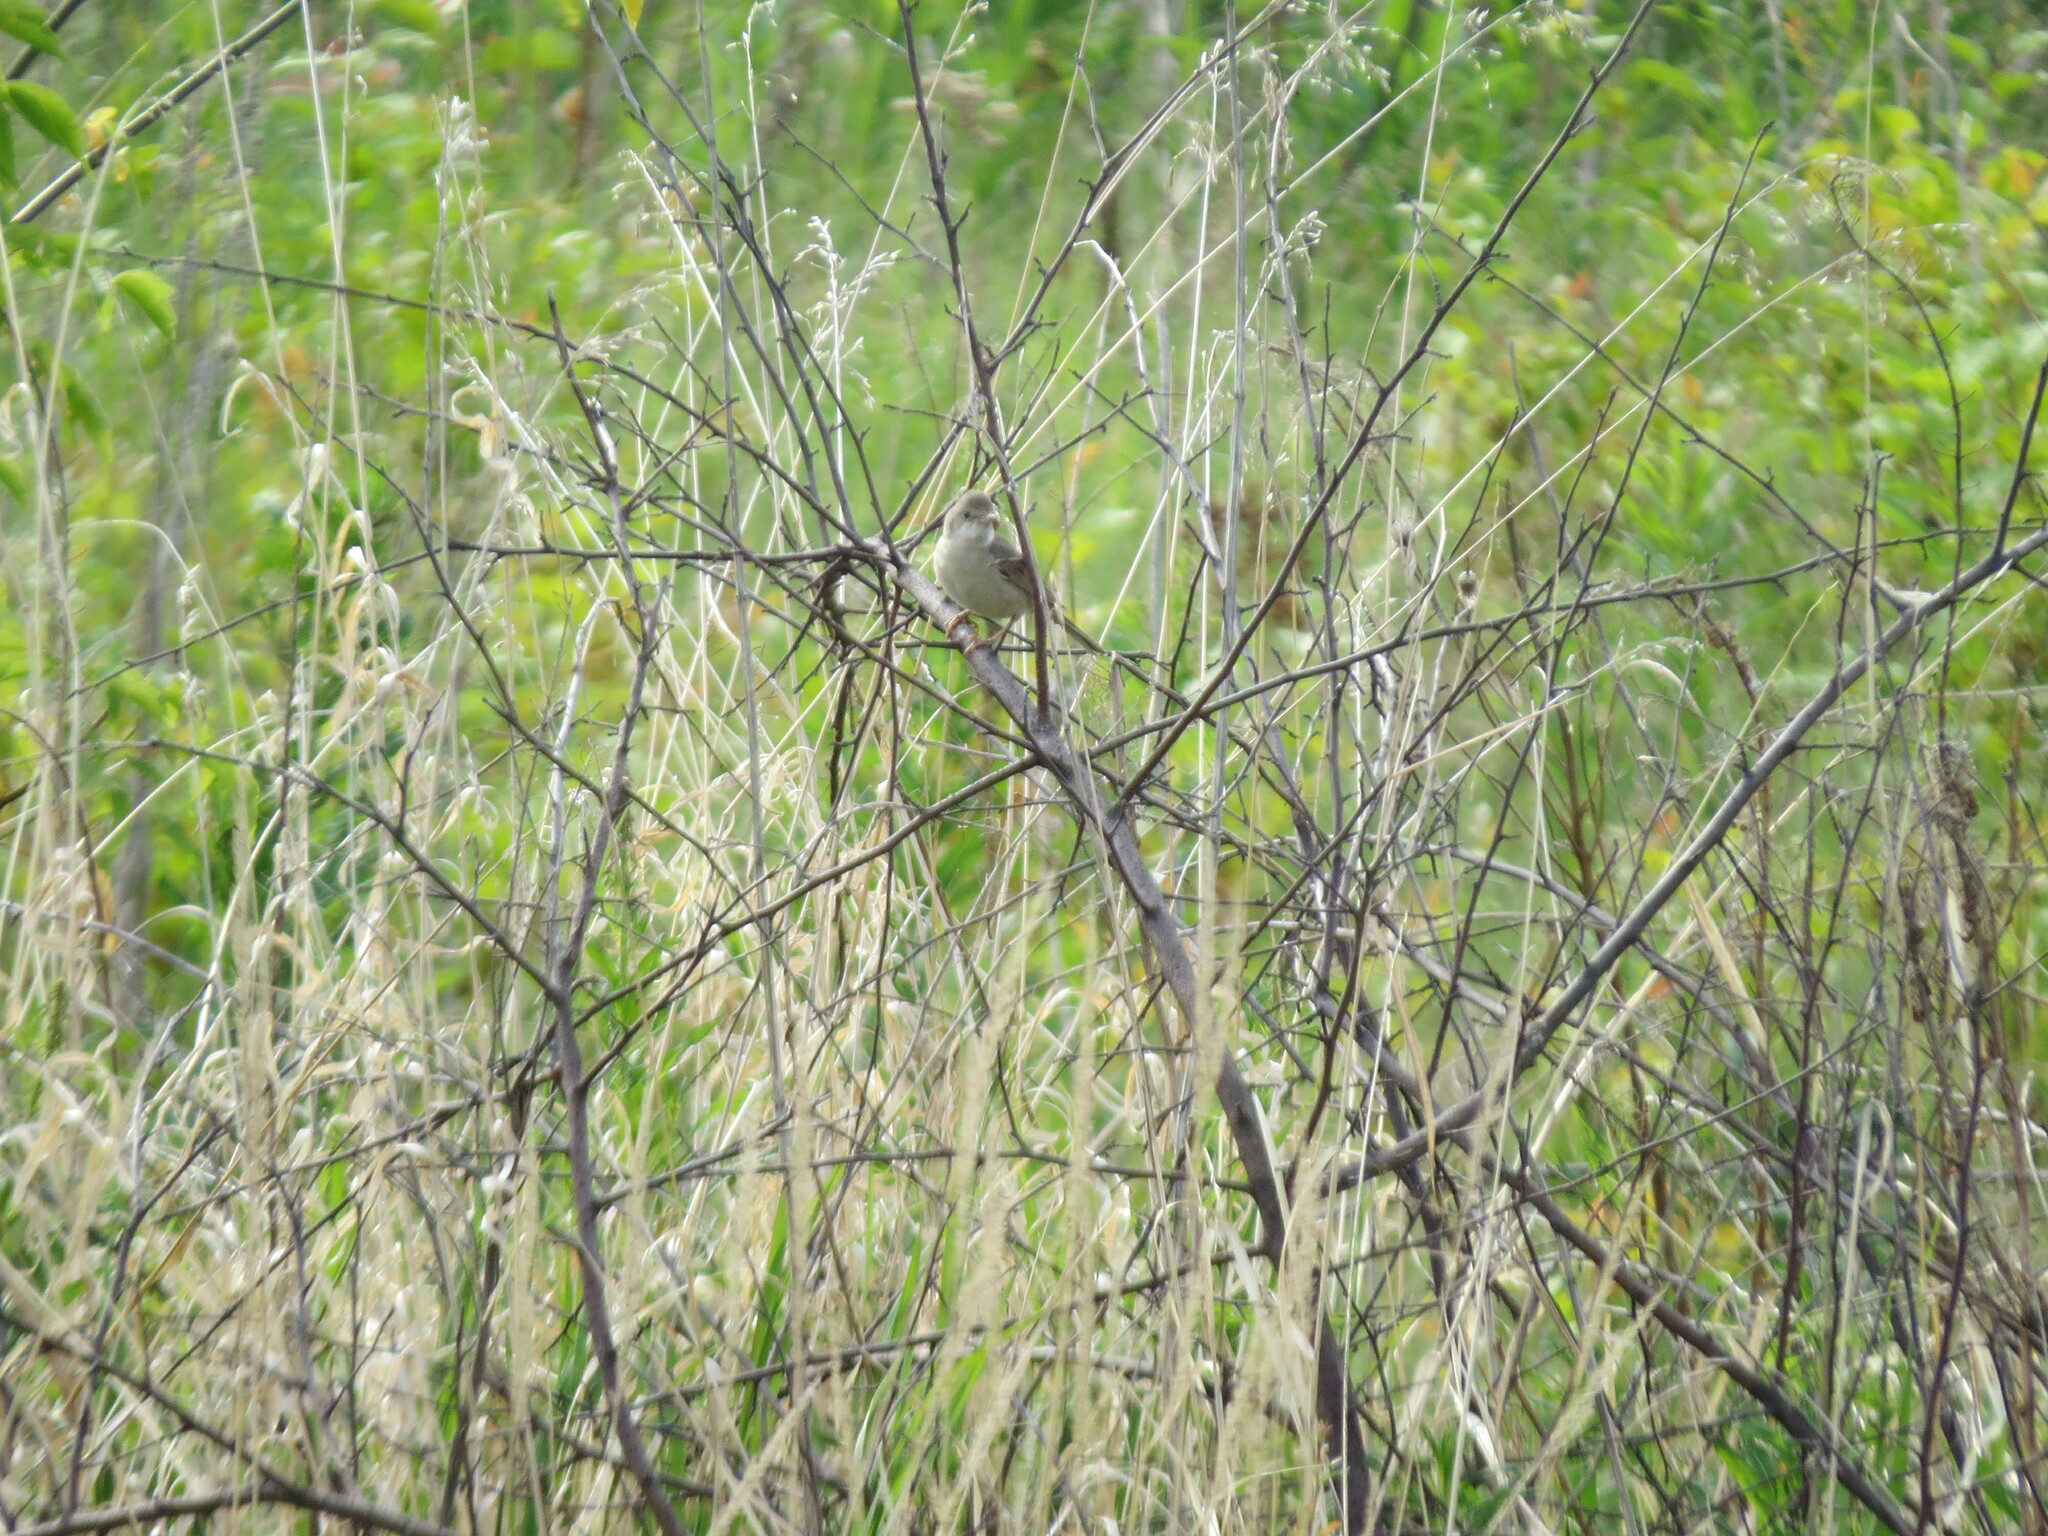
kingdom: Animalia
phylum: Chordata
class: Aves
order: Passeriformes
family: Sylviidae
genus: Sylvia
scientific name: Sylvia communis
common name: Common whitethroat
